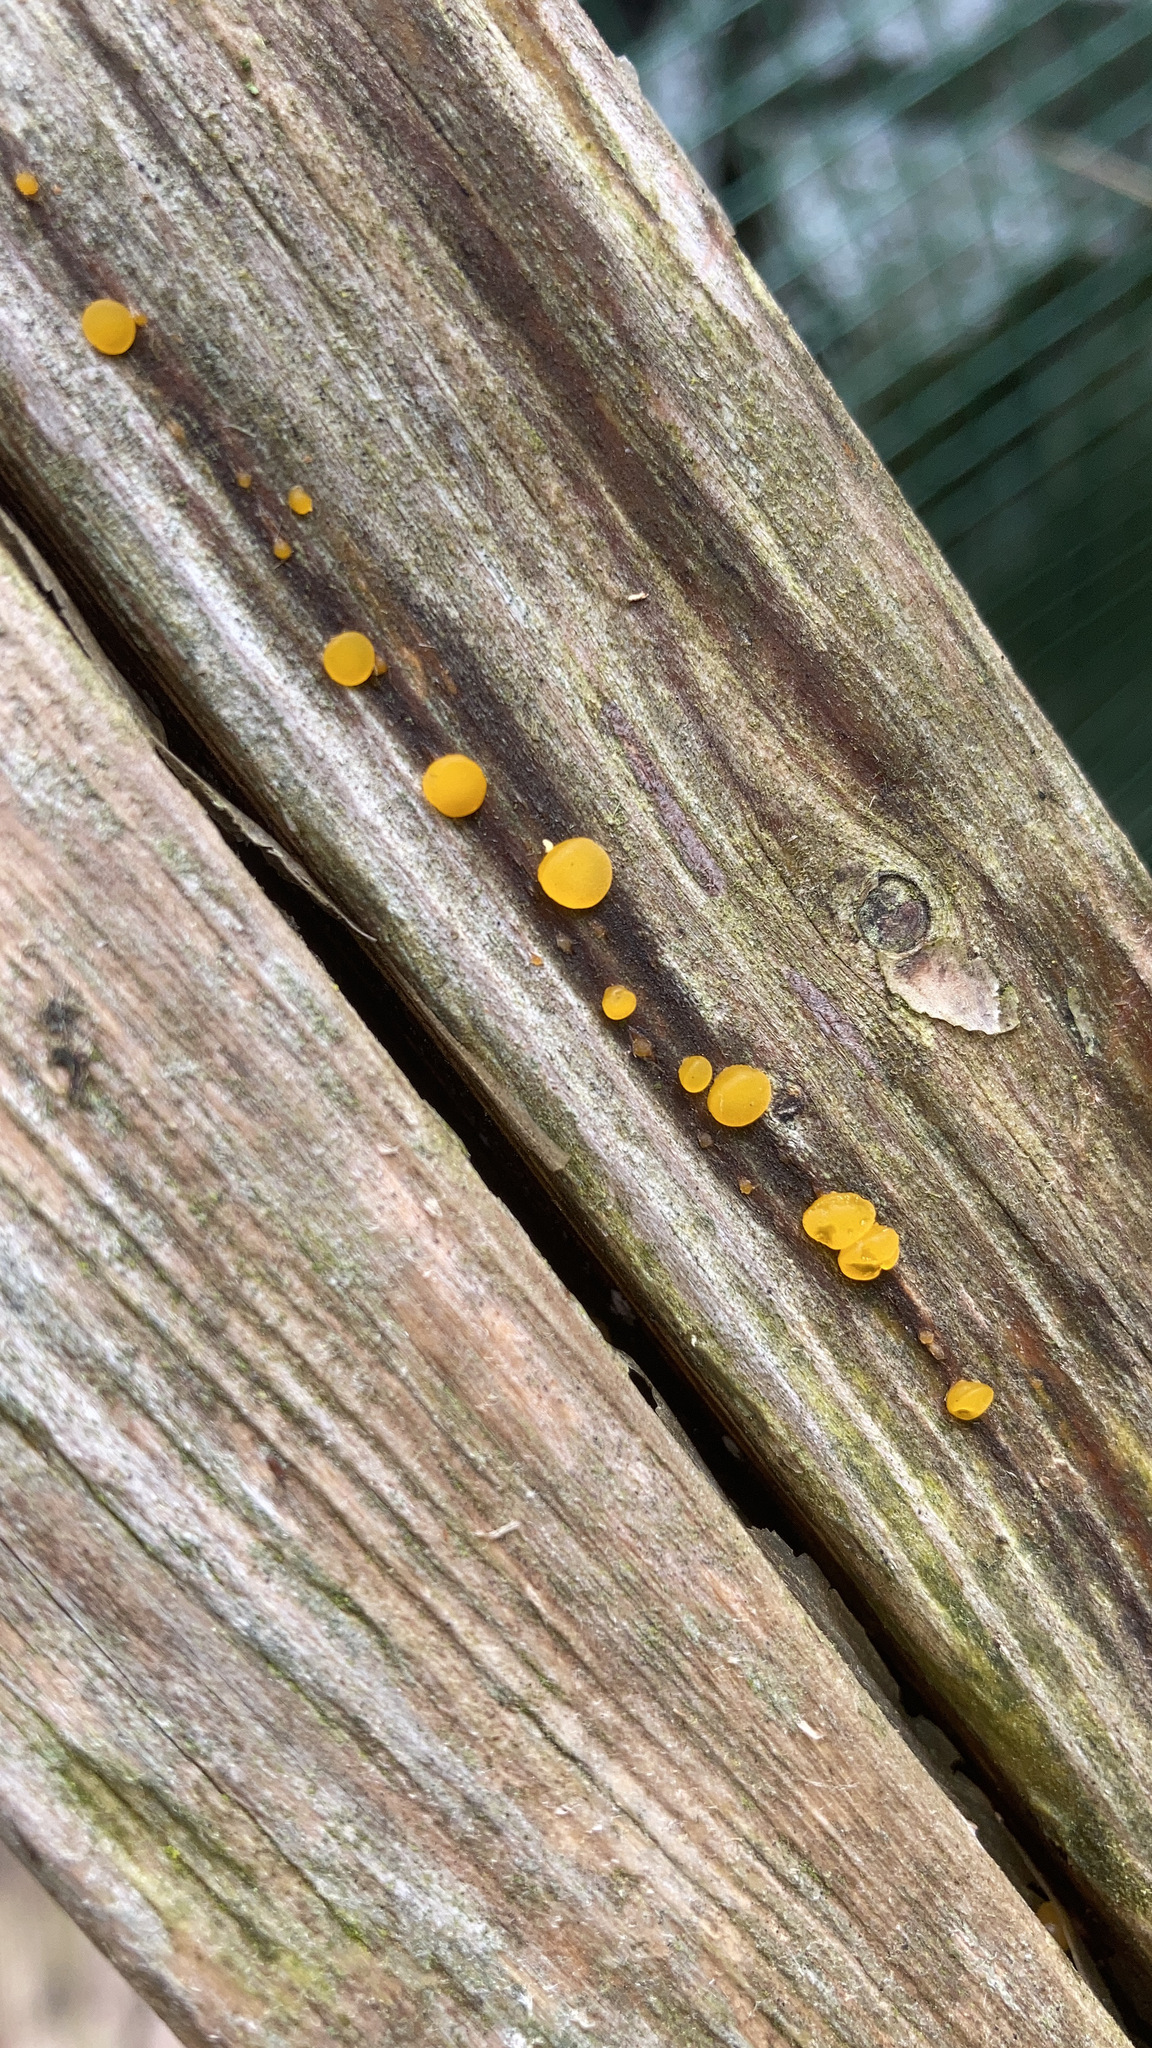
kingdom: Fungi
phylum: Basidiomycota
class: Dacrymycetes
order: Dacrymycetales
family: Dacrymycetaceae
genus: Dacrymyces
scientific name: Dacrymyces stillatus
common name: Common jelly spot
